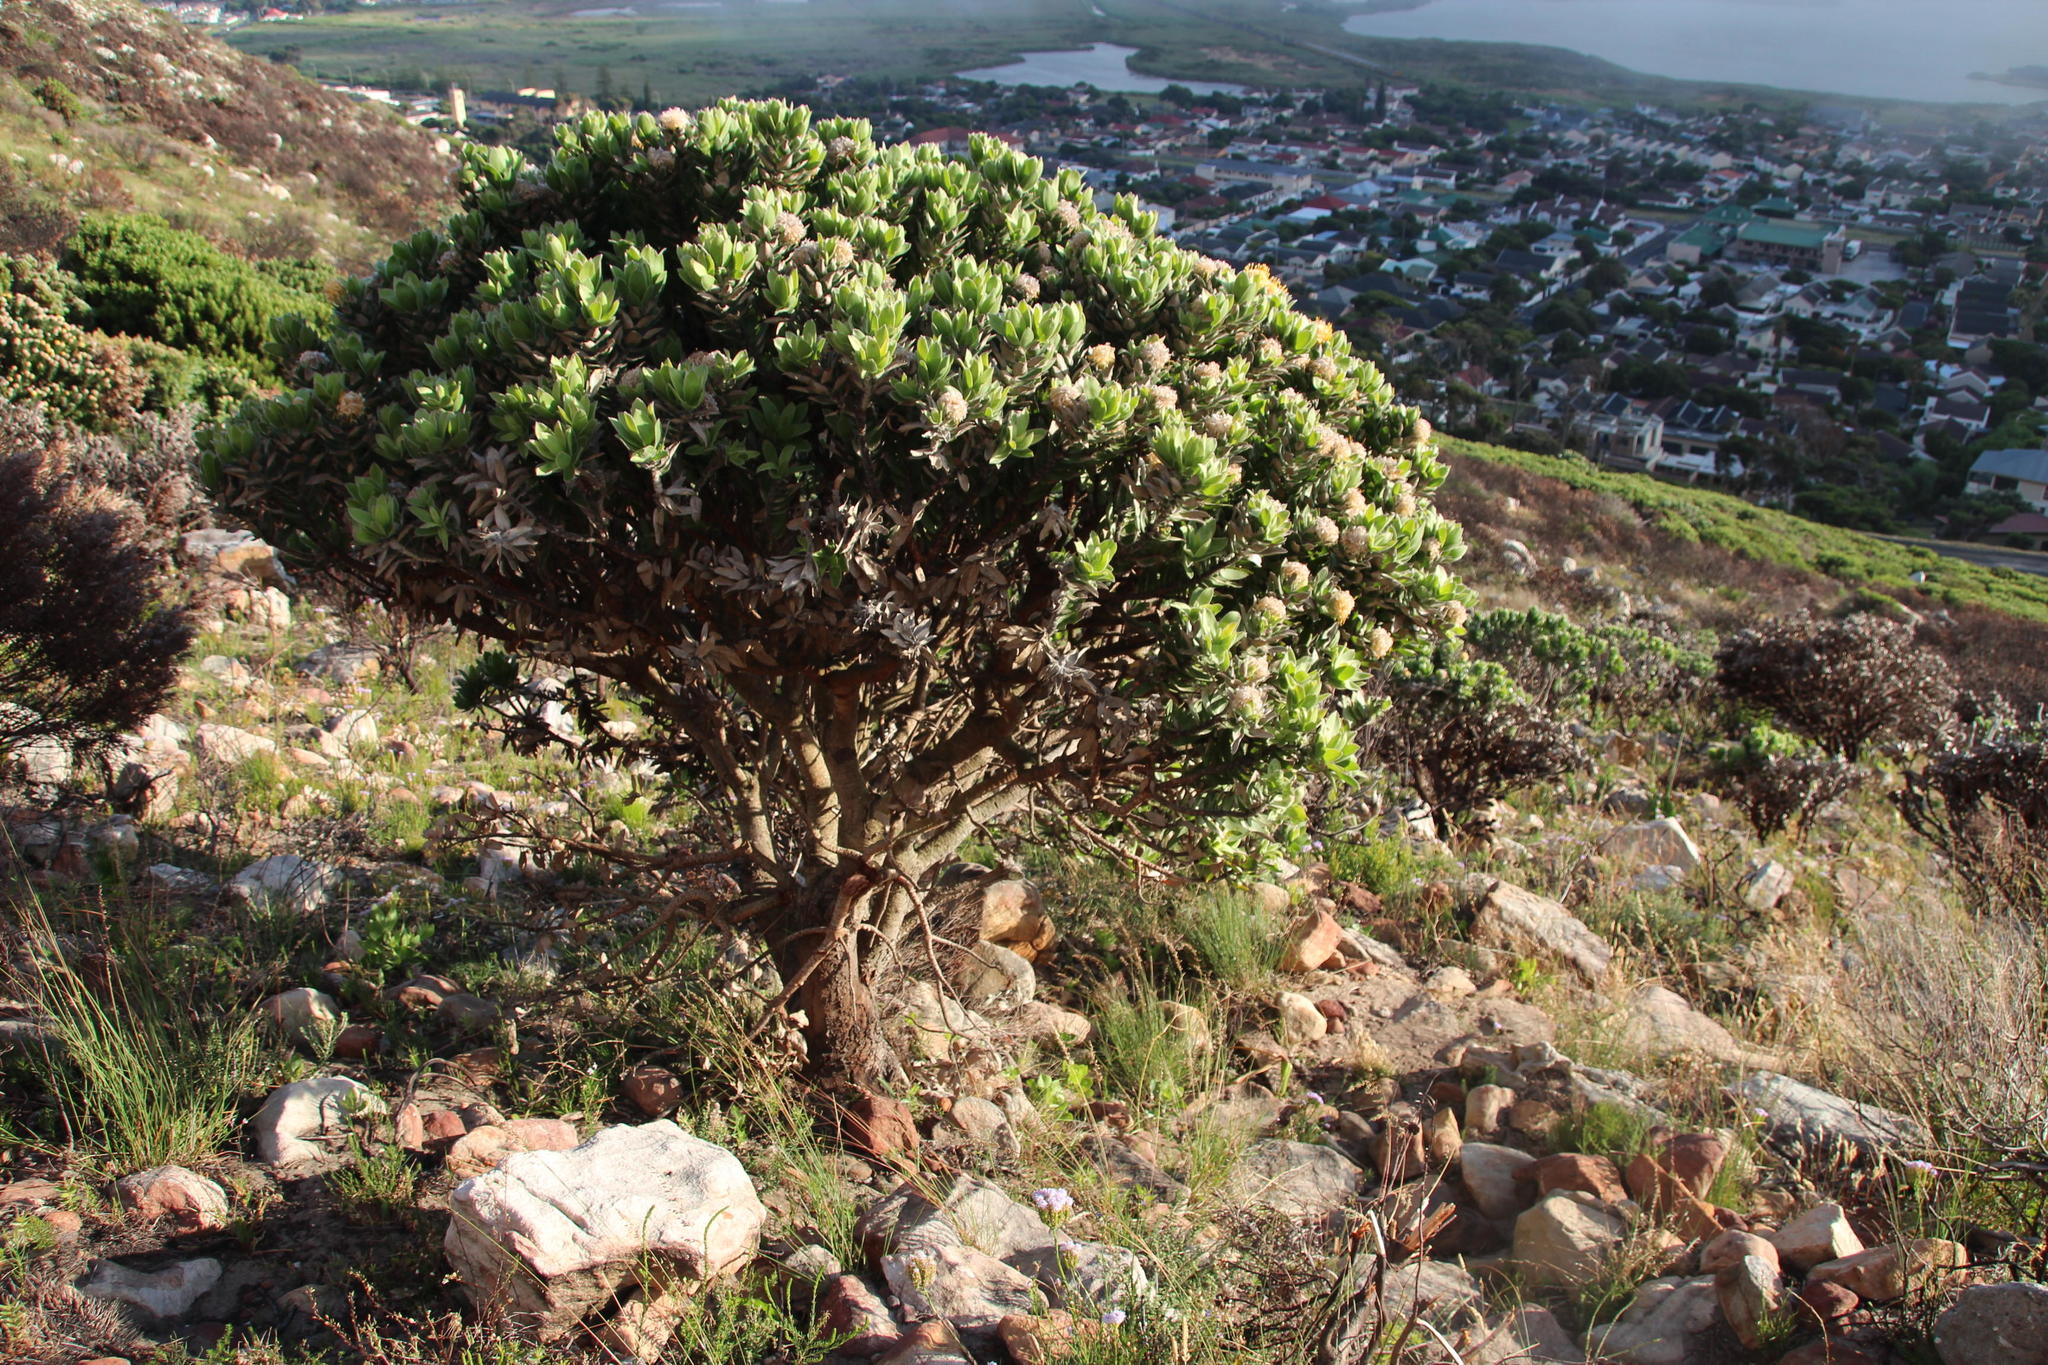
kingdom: Plantae
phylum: Tracheophyta
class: Magnoliopsida
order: Proteales
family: Proteaceae
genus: Leucospermum
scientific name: Leucospermum conocarpodendron
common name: Tree pincushion
